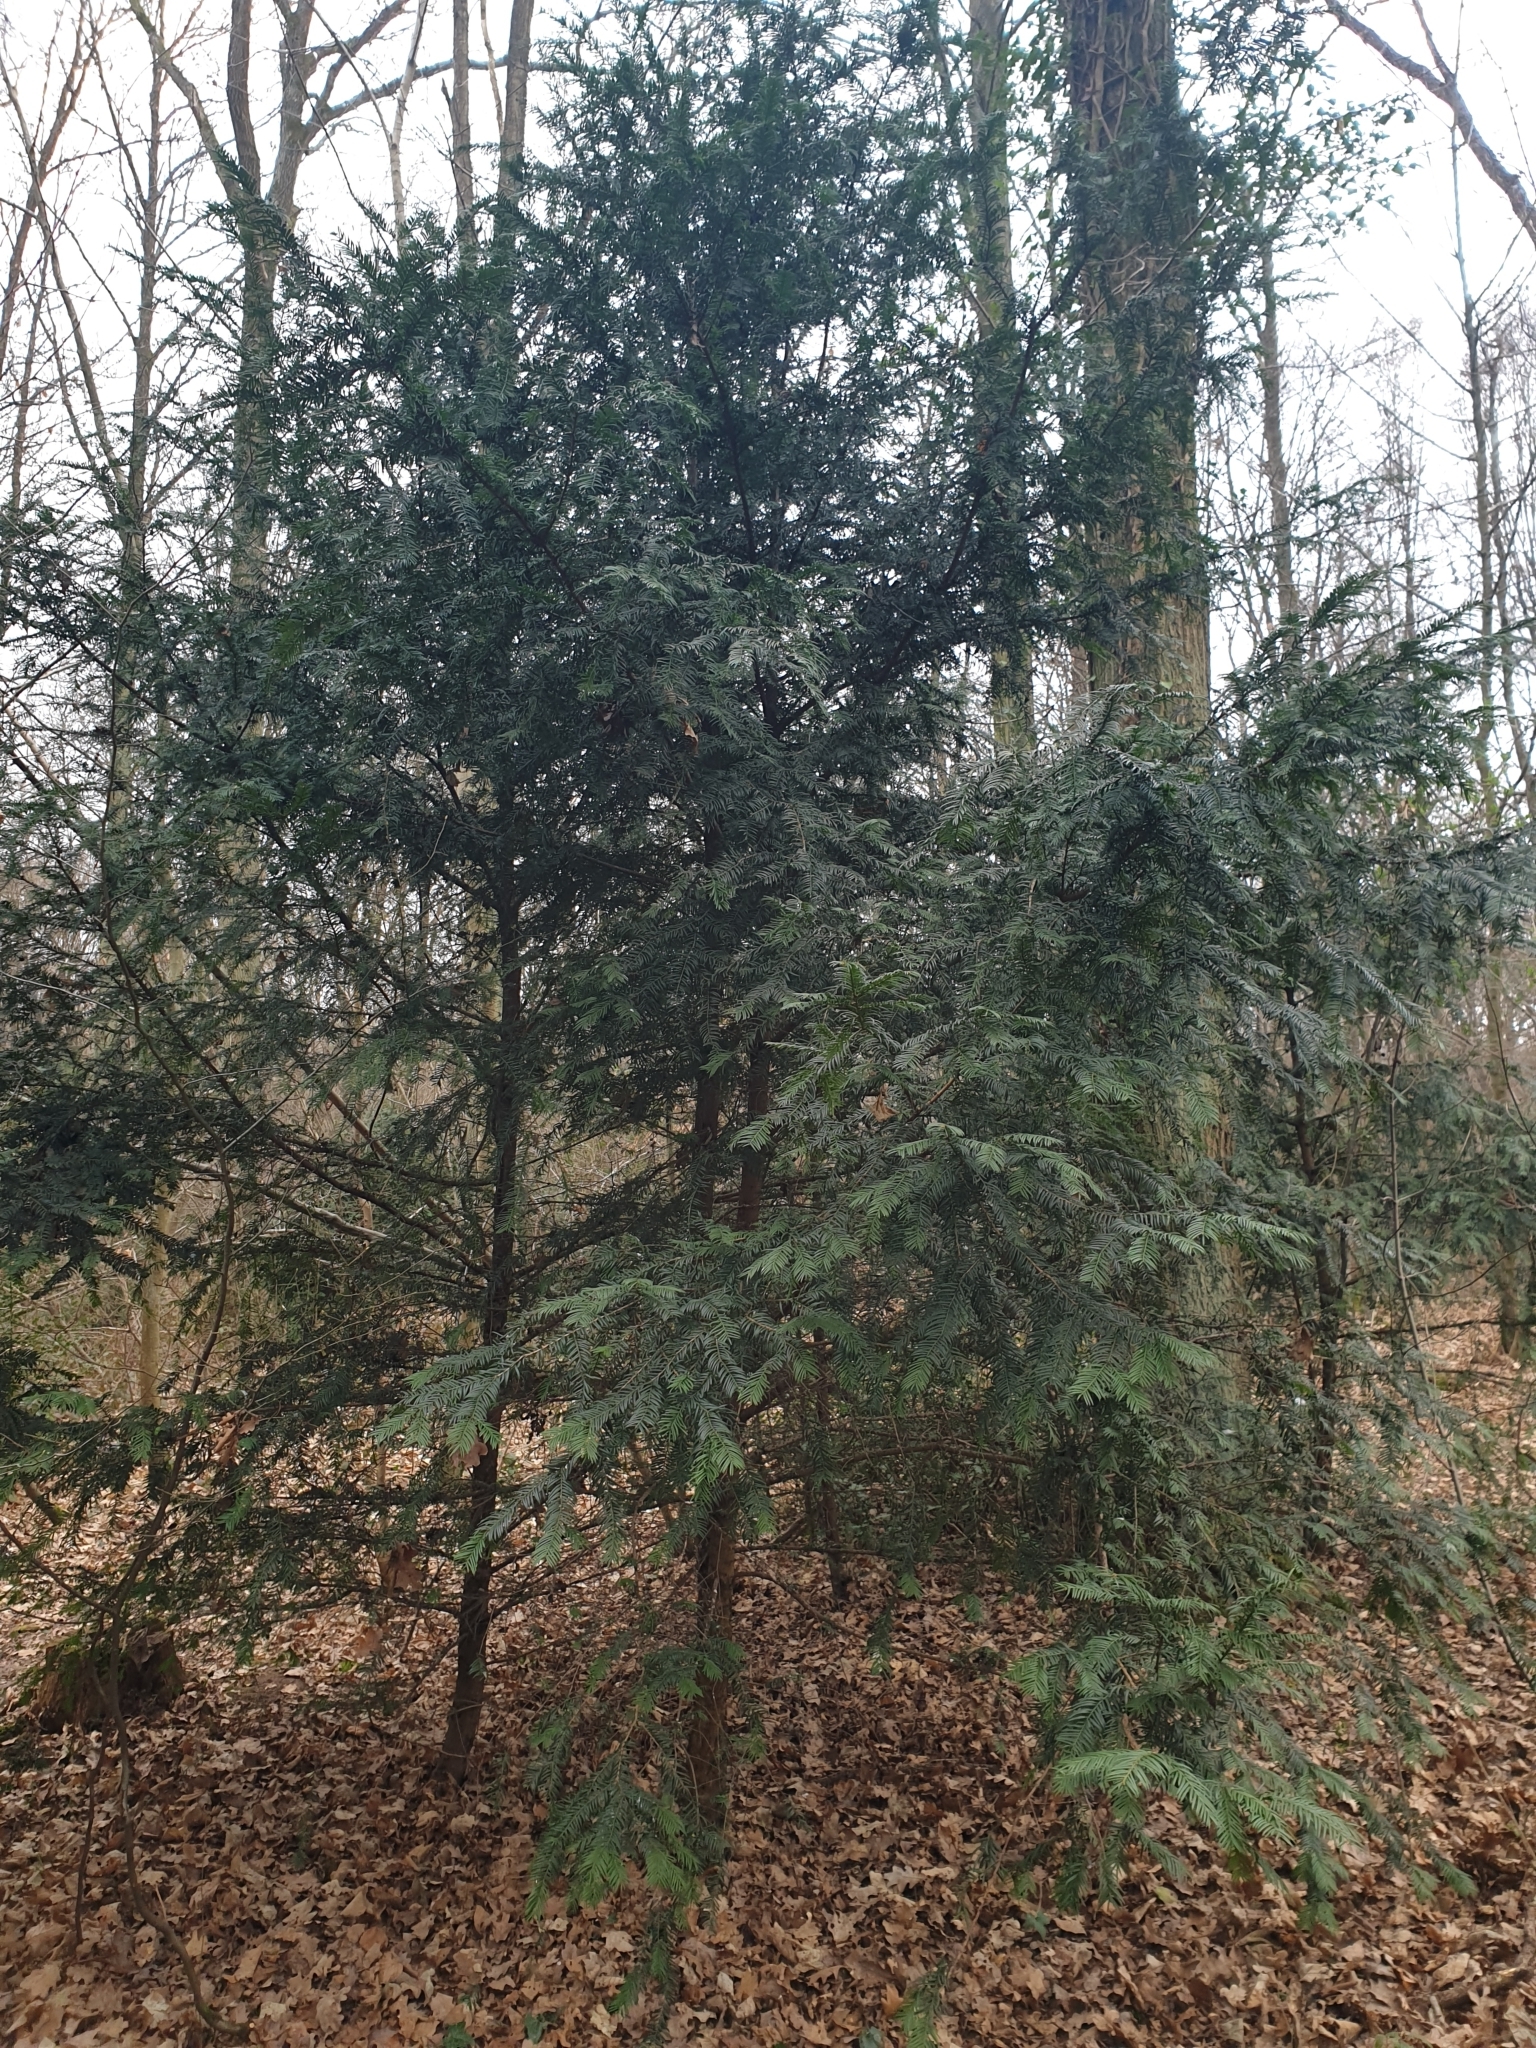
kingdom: Plantae
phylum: Tracheophyta
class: Pinopsida
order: Pinales
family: Taxaceae
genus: Taxus
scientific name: Taxus baccata
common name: Yew
